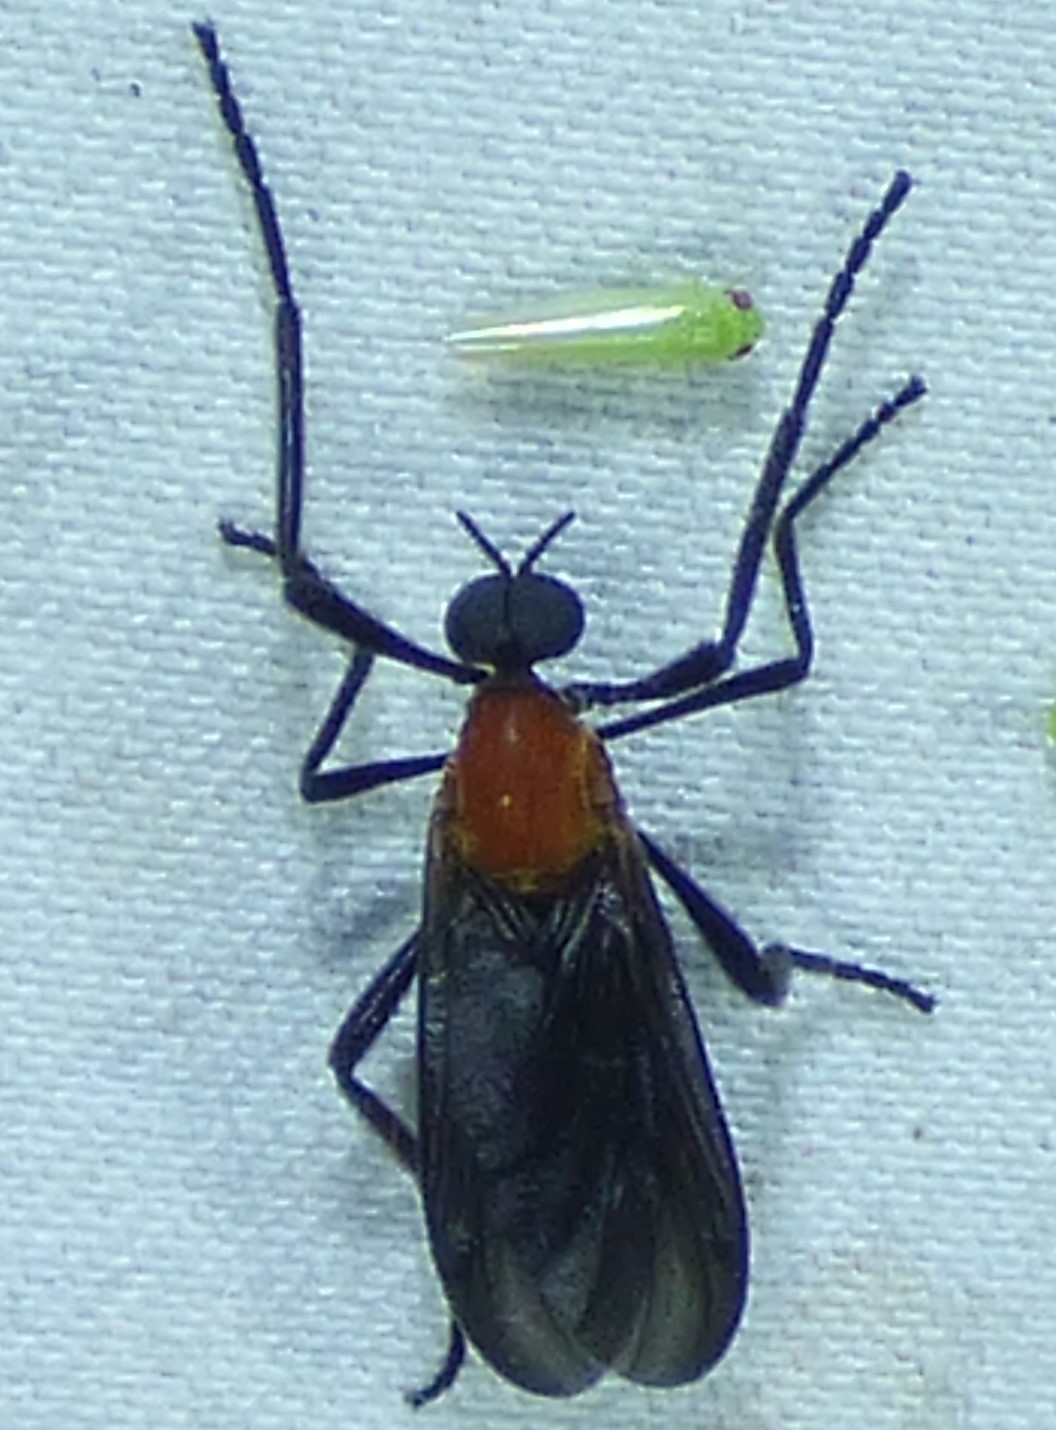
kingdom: Animalia
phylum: Arthropoda
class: Insecta
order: Diptera
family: Bibionidae
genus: Plecia
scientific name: Plecia nearctica
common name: March fly
